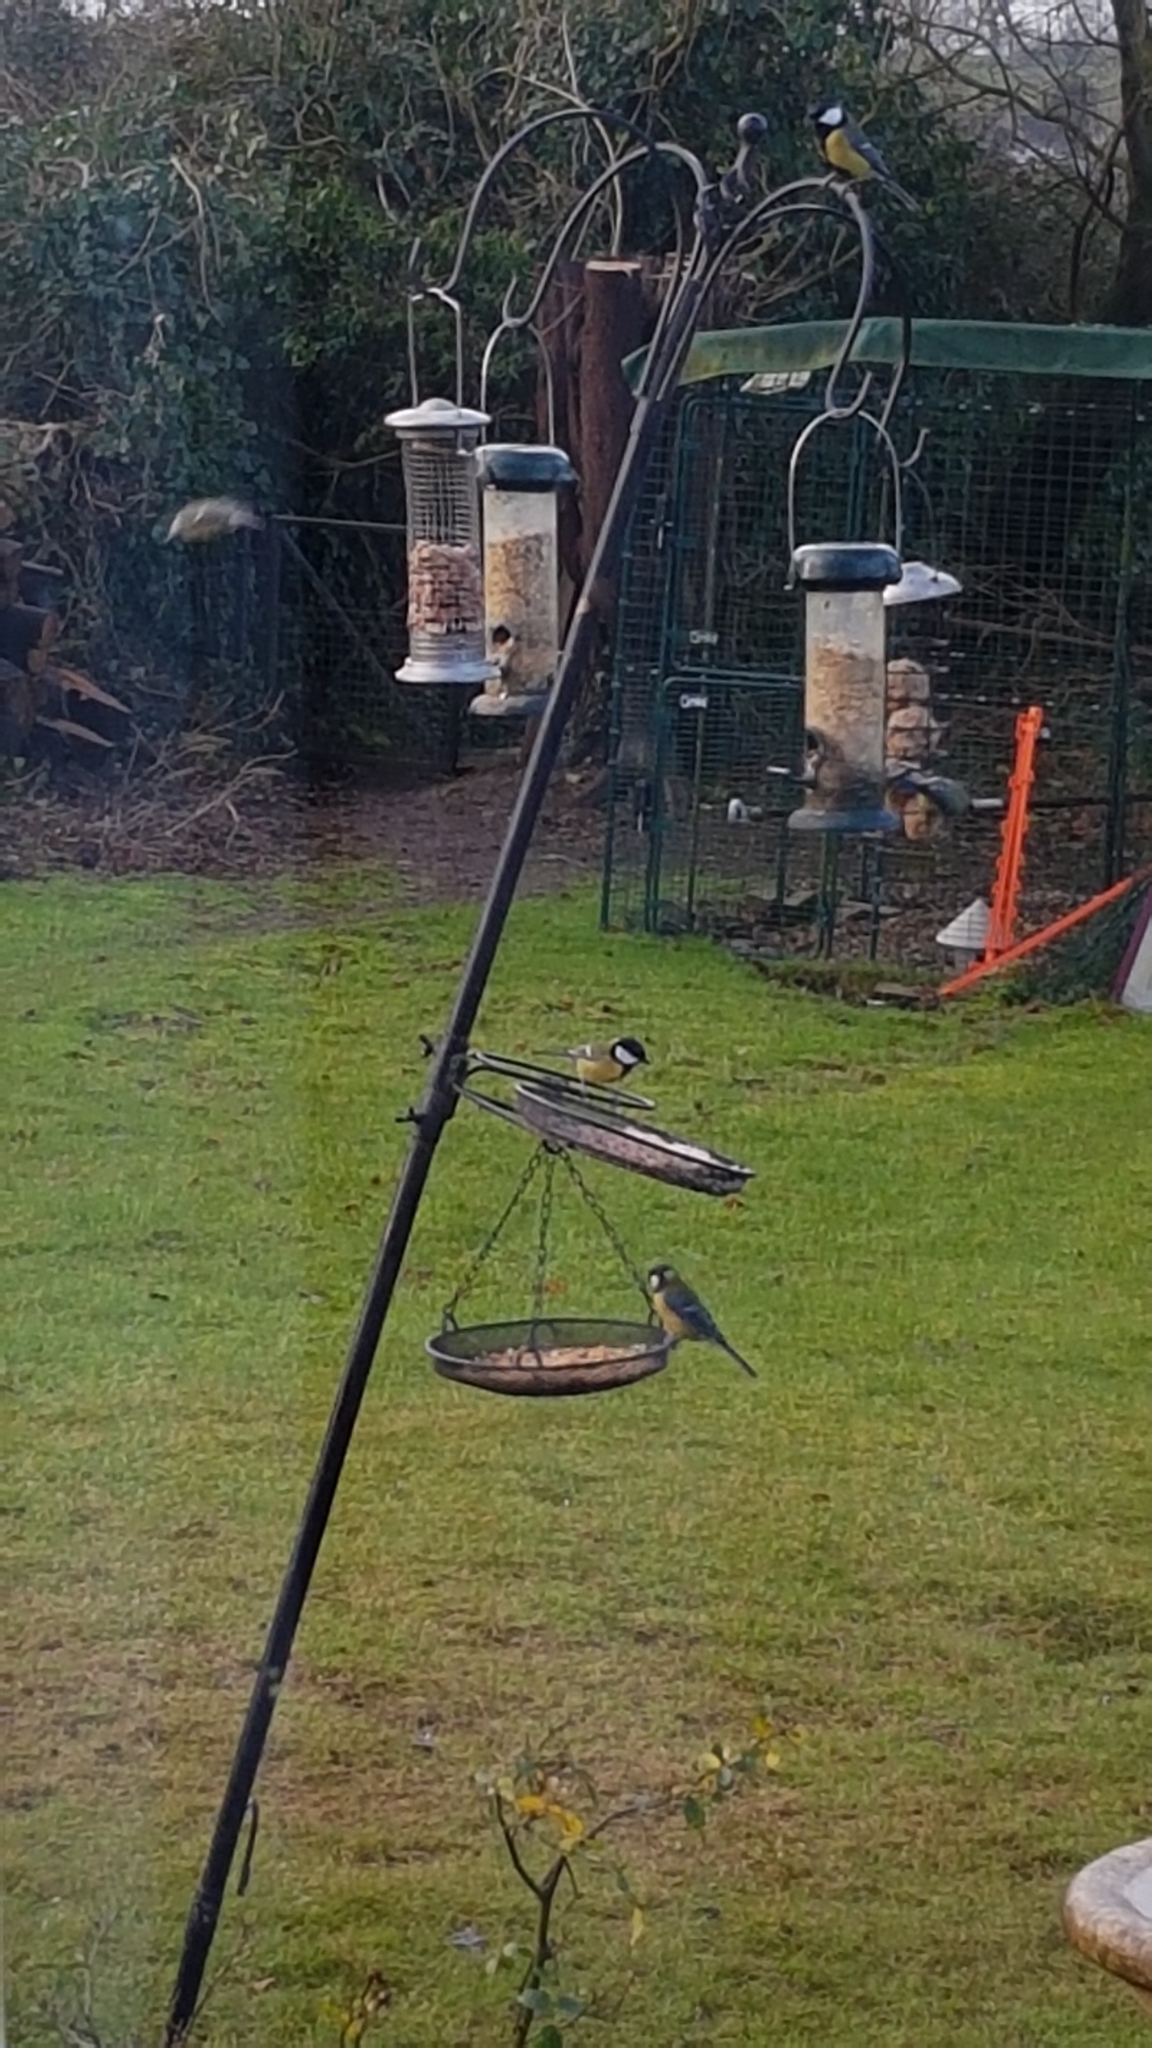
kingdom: Animalia
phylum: Chordata
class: Aves
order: Passeriformes
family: Paridae
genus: Parus
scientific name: Parus major
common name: Great tit
